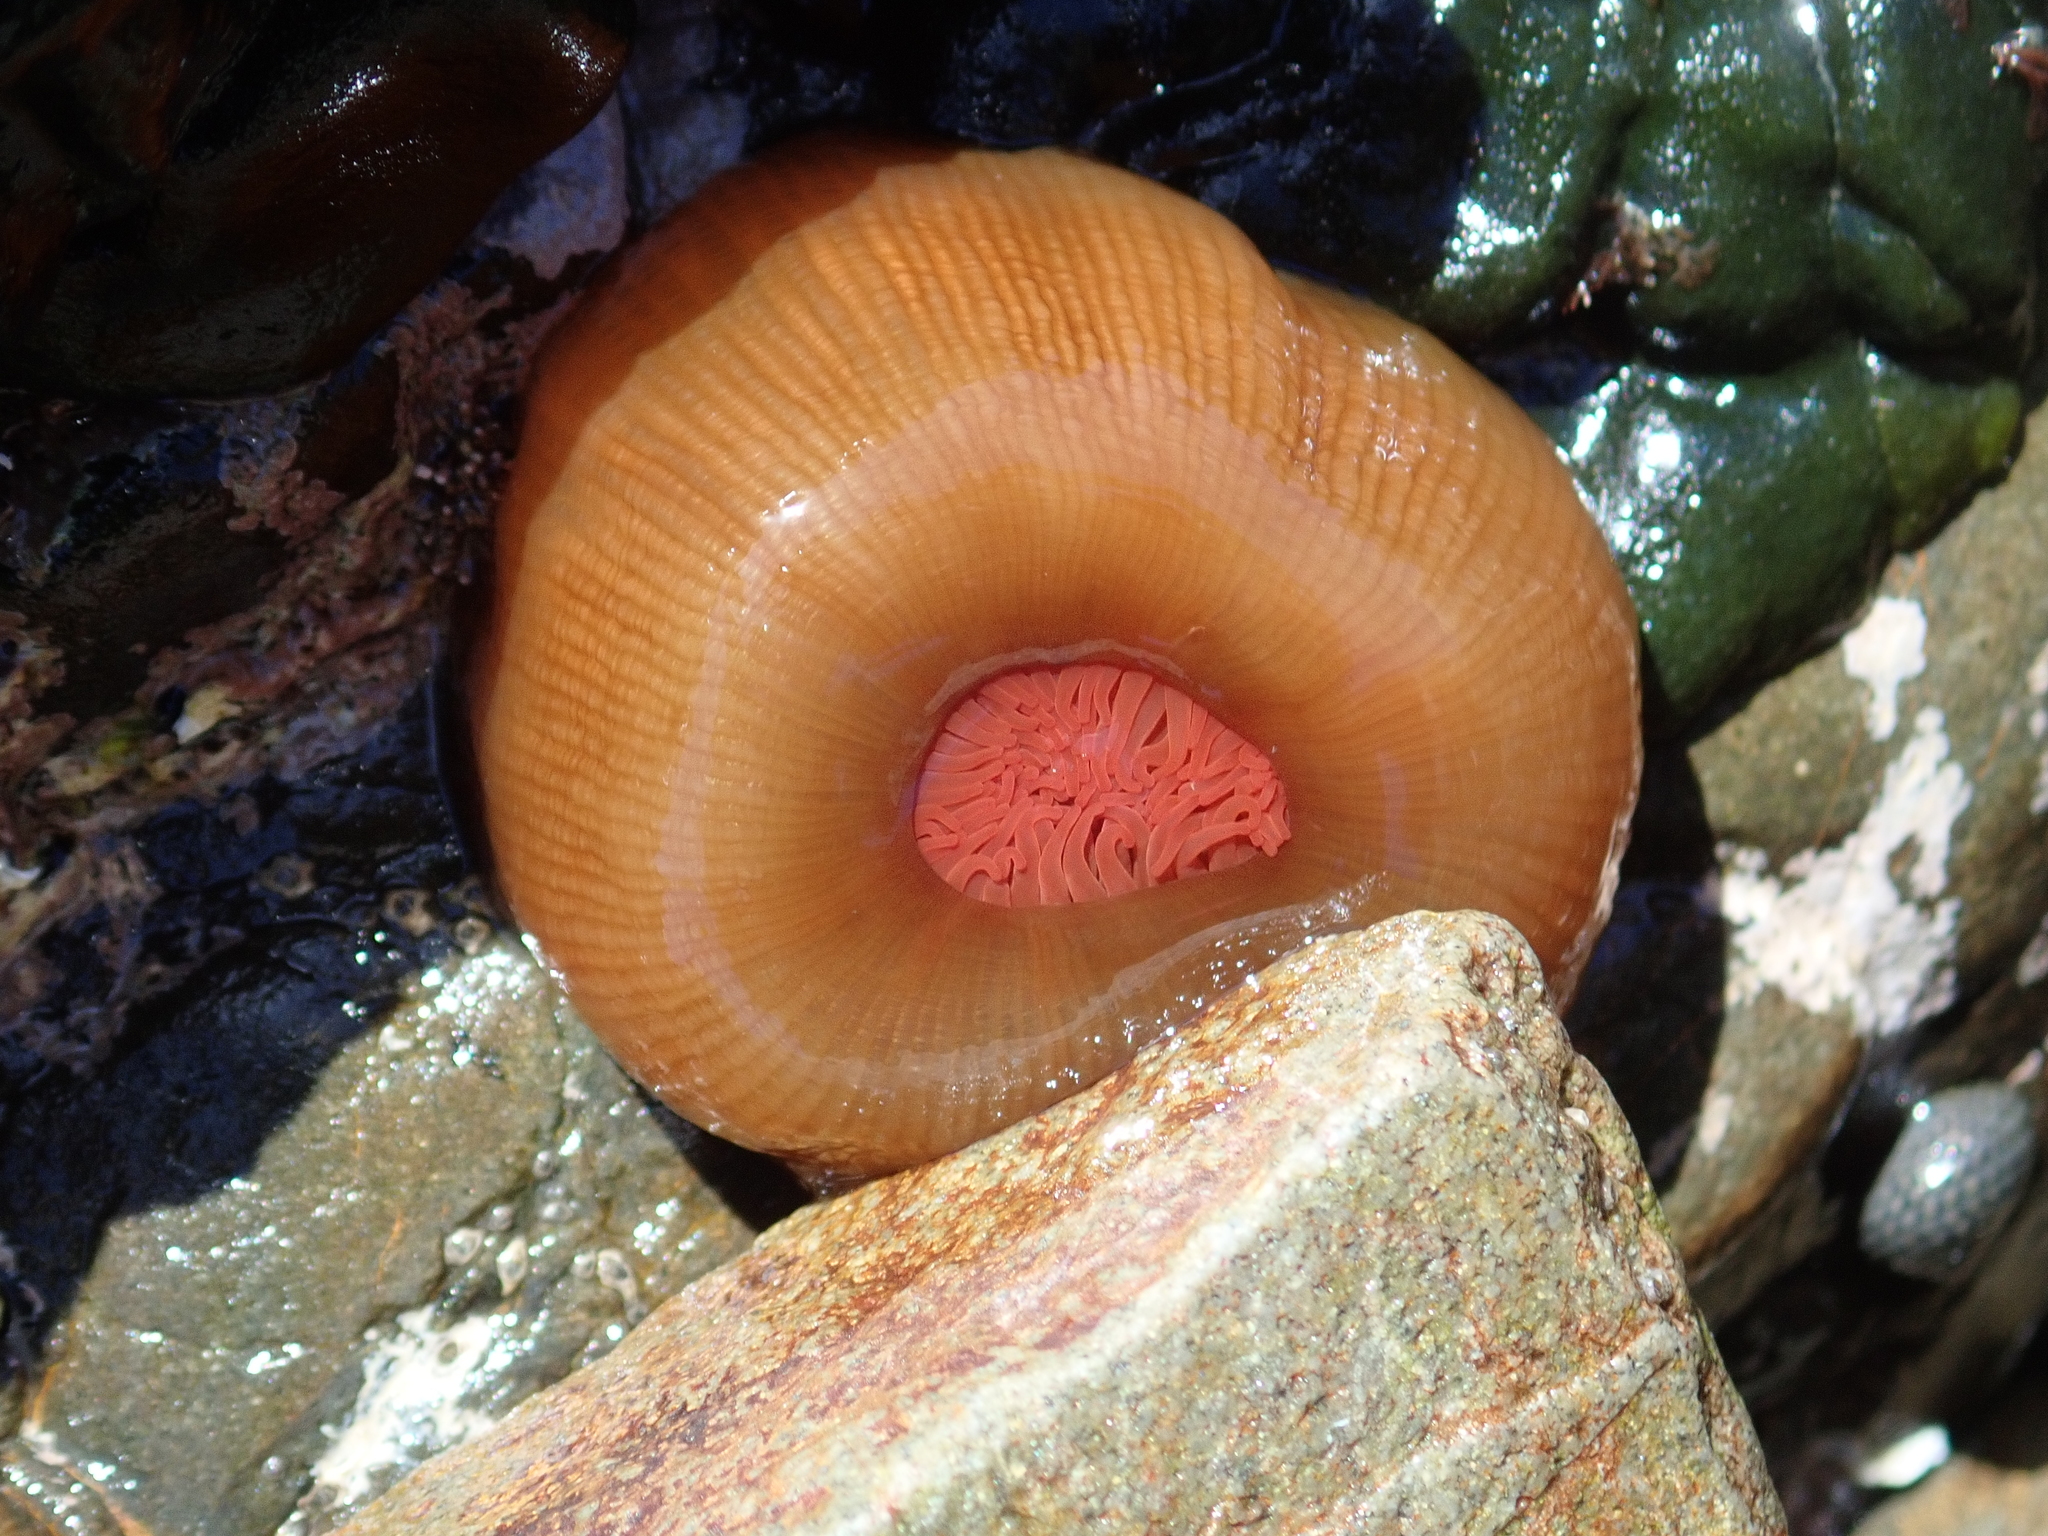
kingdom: Animalia
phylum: Cnidaria
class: Anthozoa
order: Actiniaria
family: Actiniidae
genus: Actinia
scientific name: Actinia tenebrosa
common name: Waratah anemone
